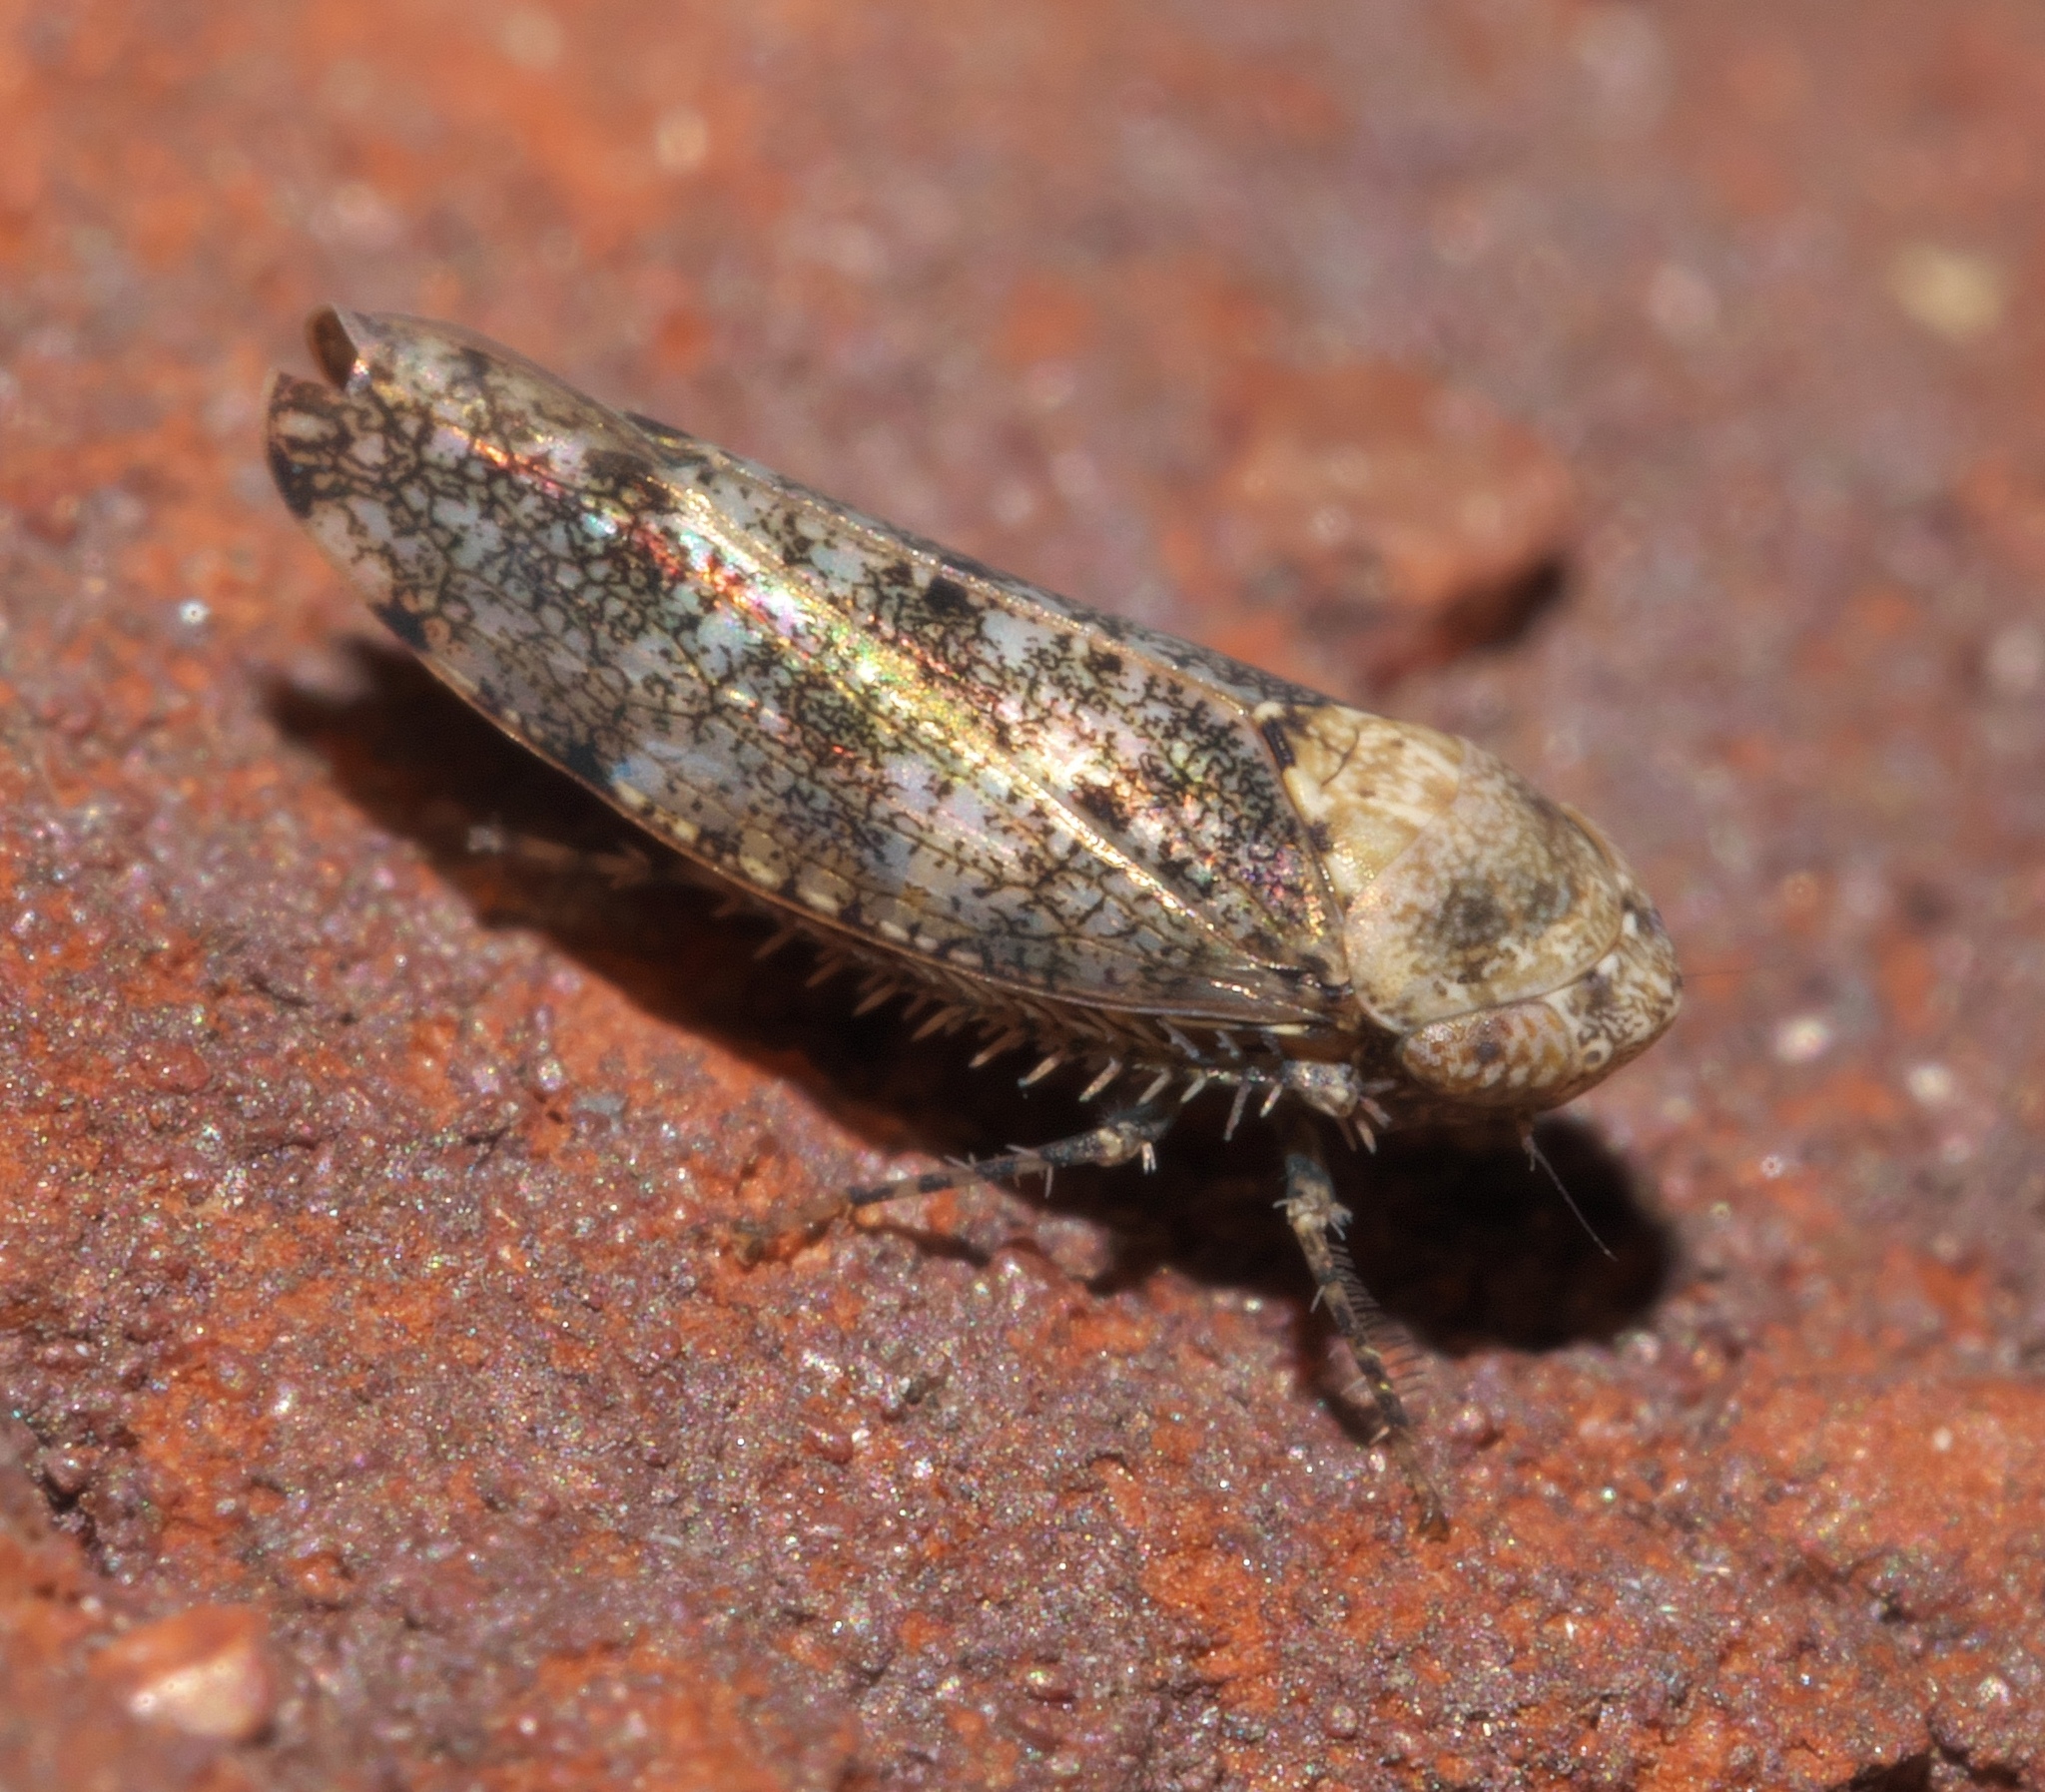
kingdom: Animalia
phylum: Arthropoda
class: Insecta
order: Hemiptera
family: Cicadellidae
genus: Paraphlepsius
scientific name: Paraphlepsius collitus
